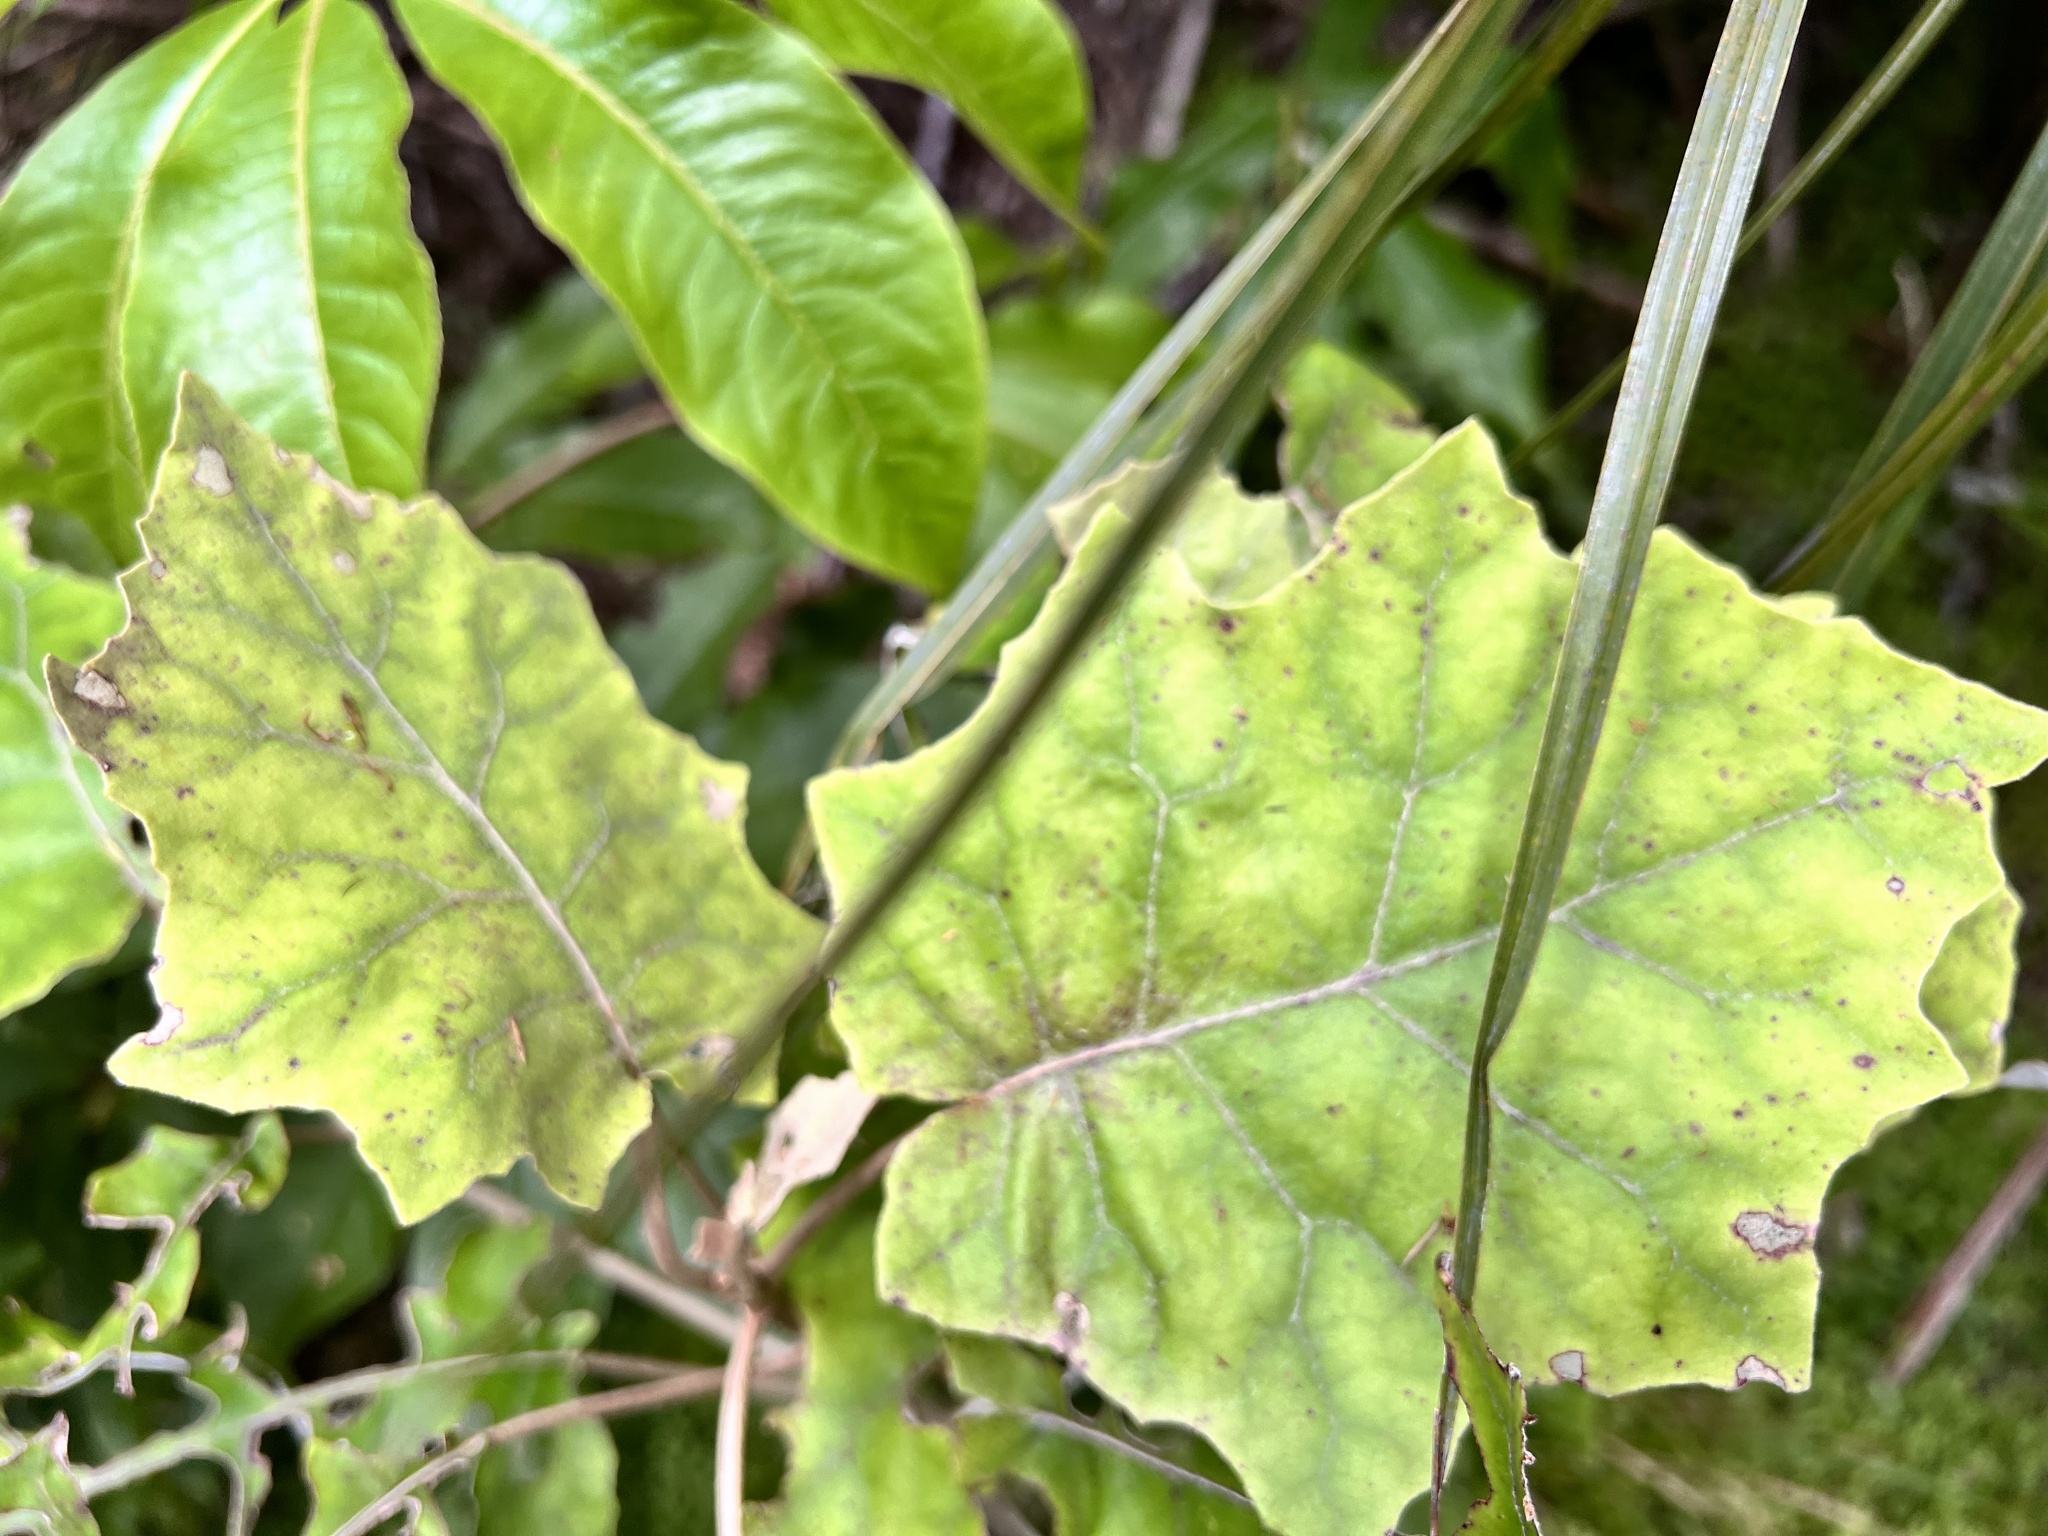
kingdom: Plantae
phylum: Tracheophyta
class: Magnoliopsida
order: Asterales
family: Asteraceae
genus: Brachyglottis
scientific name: Brachyglottis repanda
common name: Hedge ragwort
